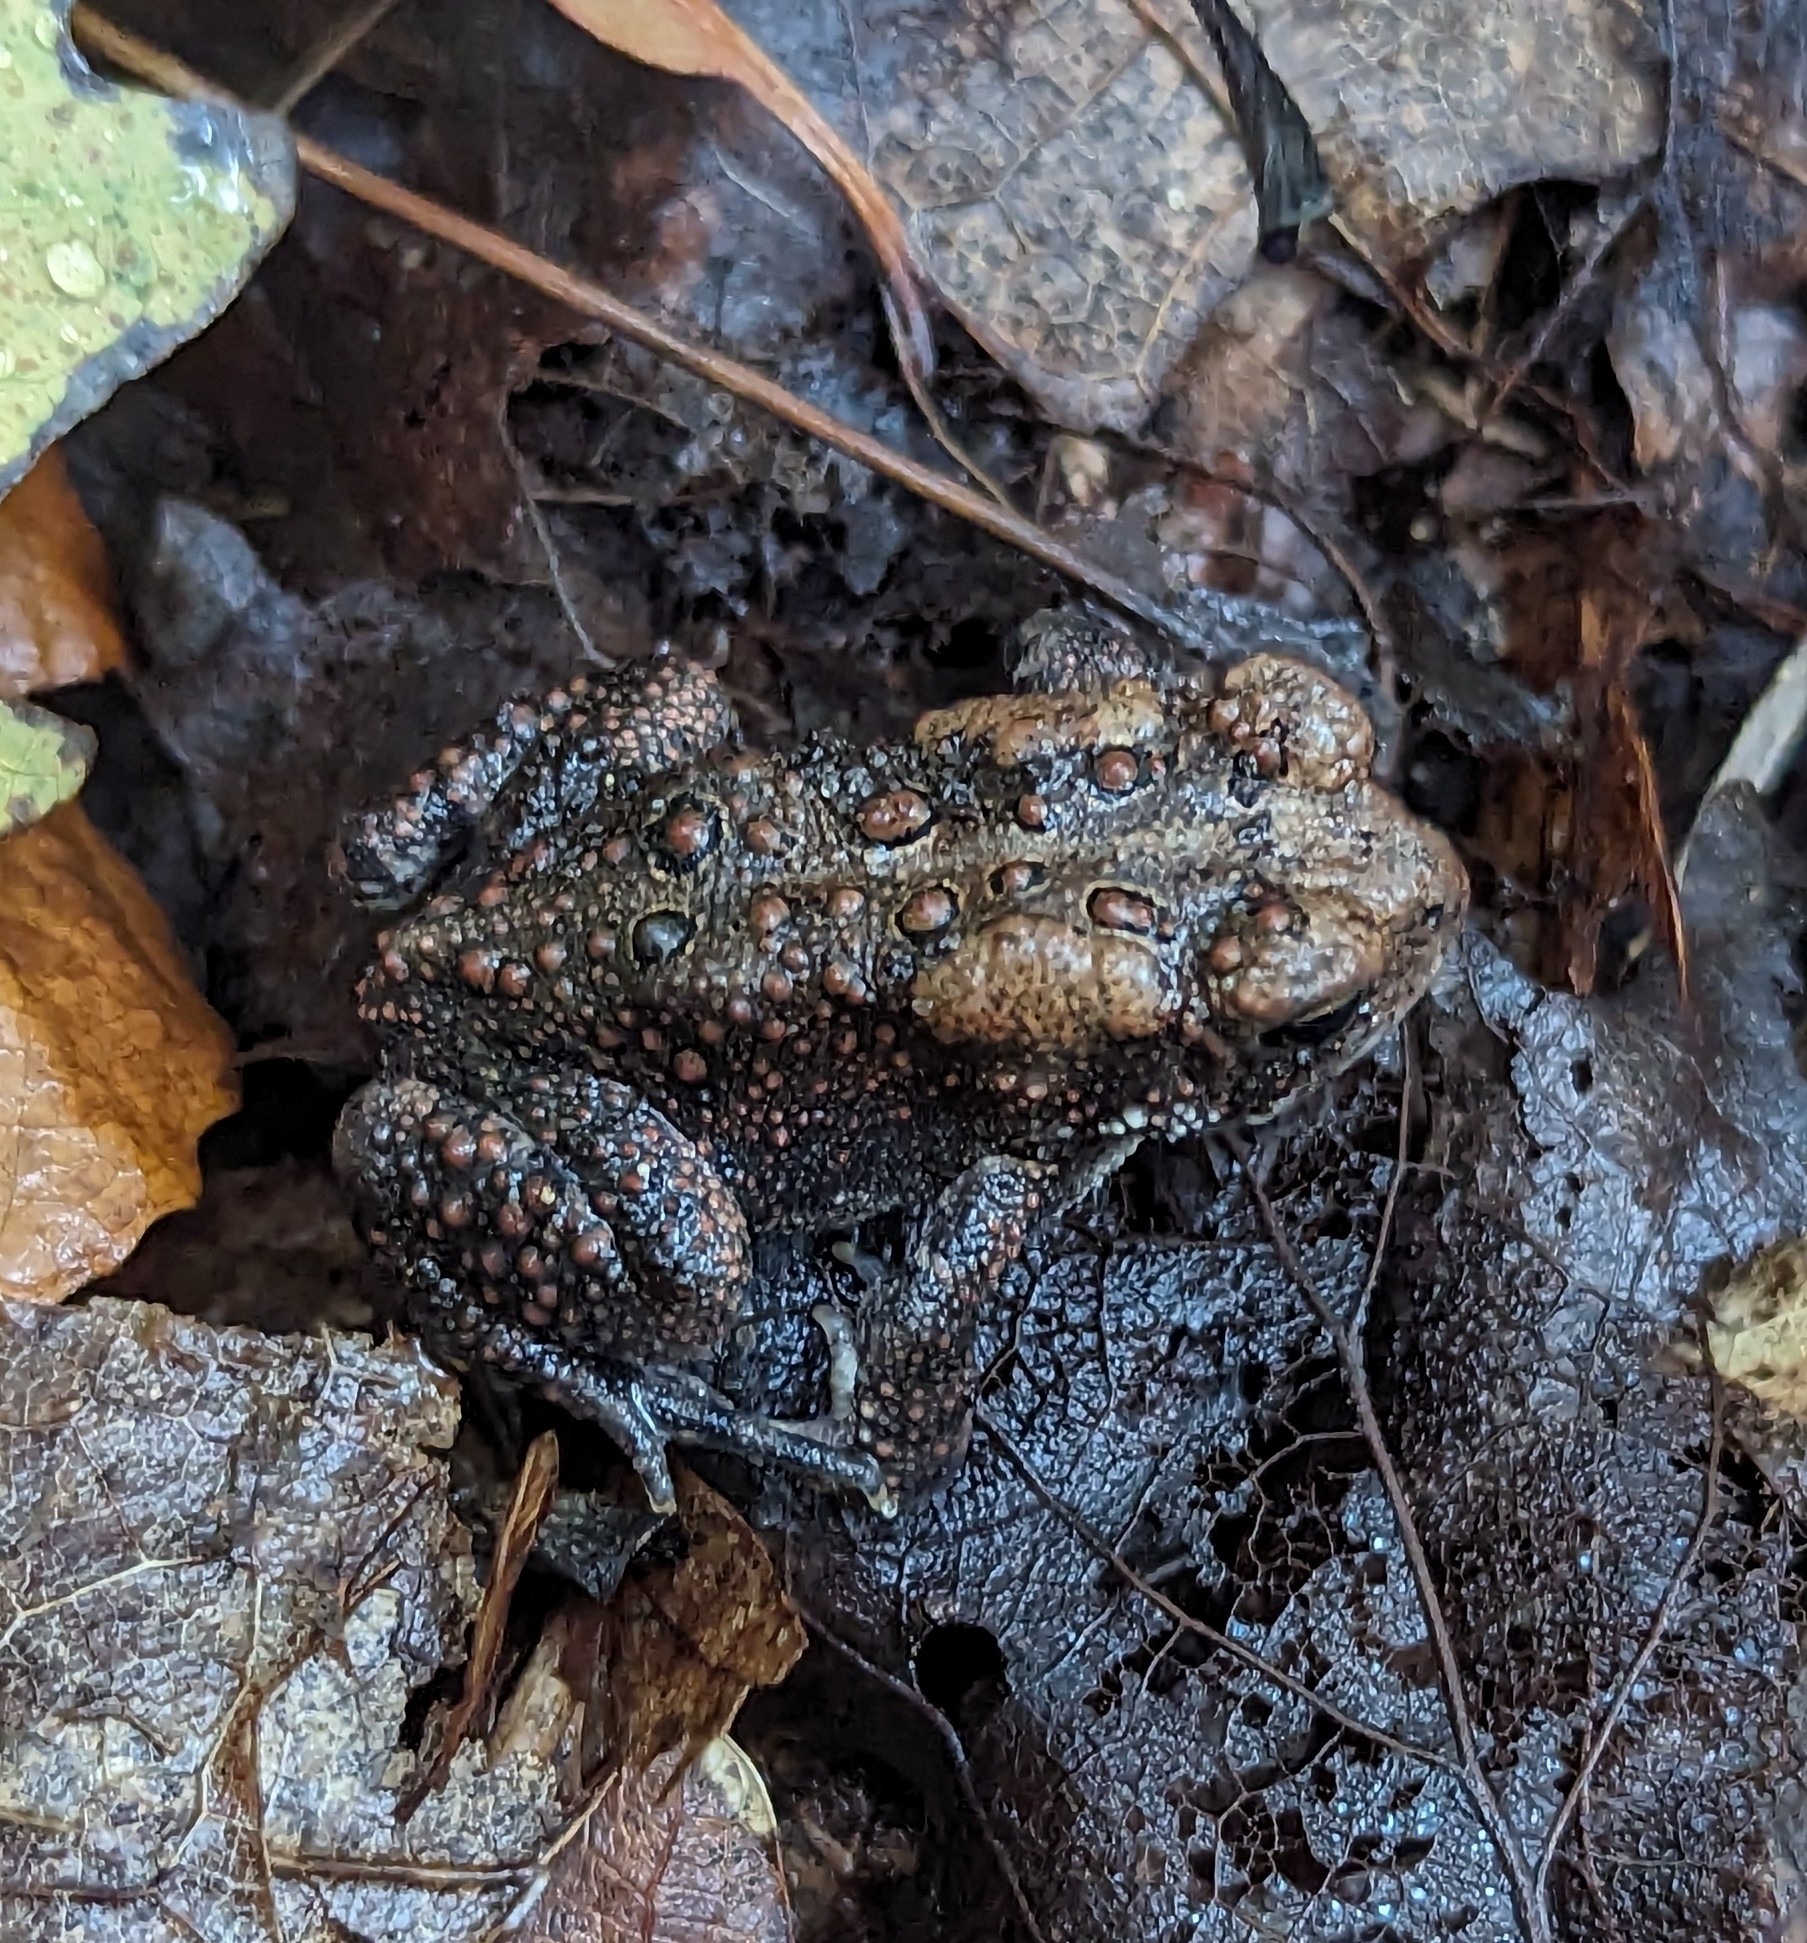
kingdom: Animalia
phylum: Chordata
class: Amphibia
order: Anura
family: Bufonidae
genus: Anaxyrus
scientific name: Anaxyrus americanus
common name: American toad
